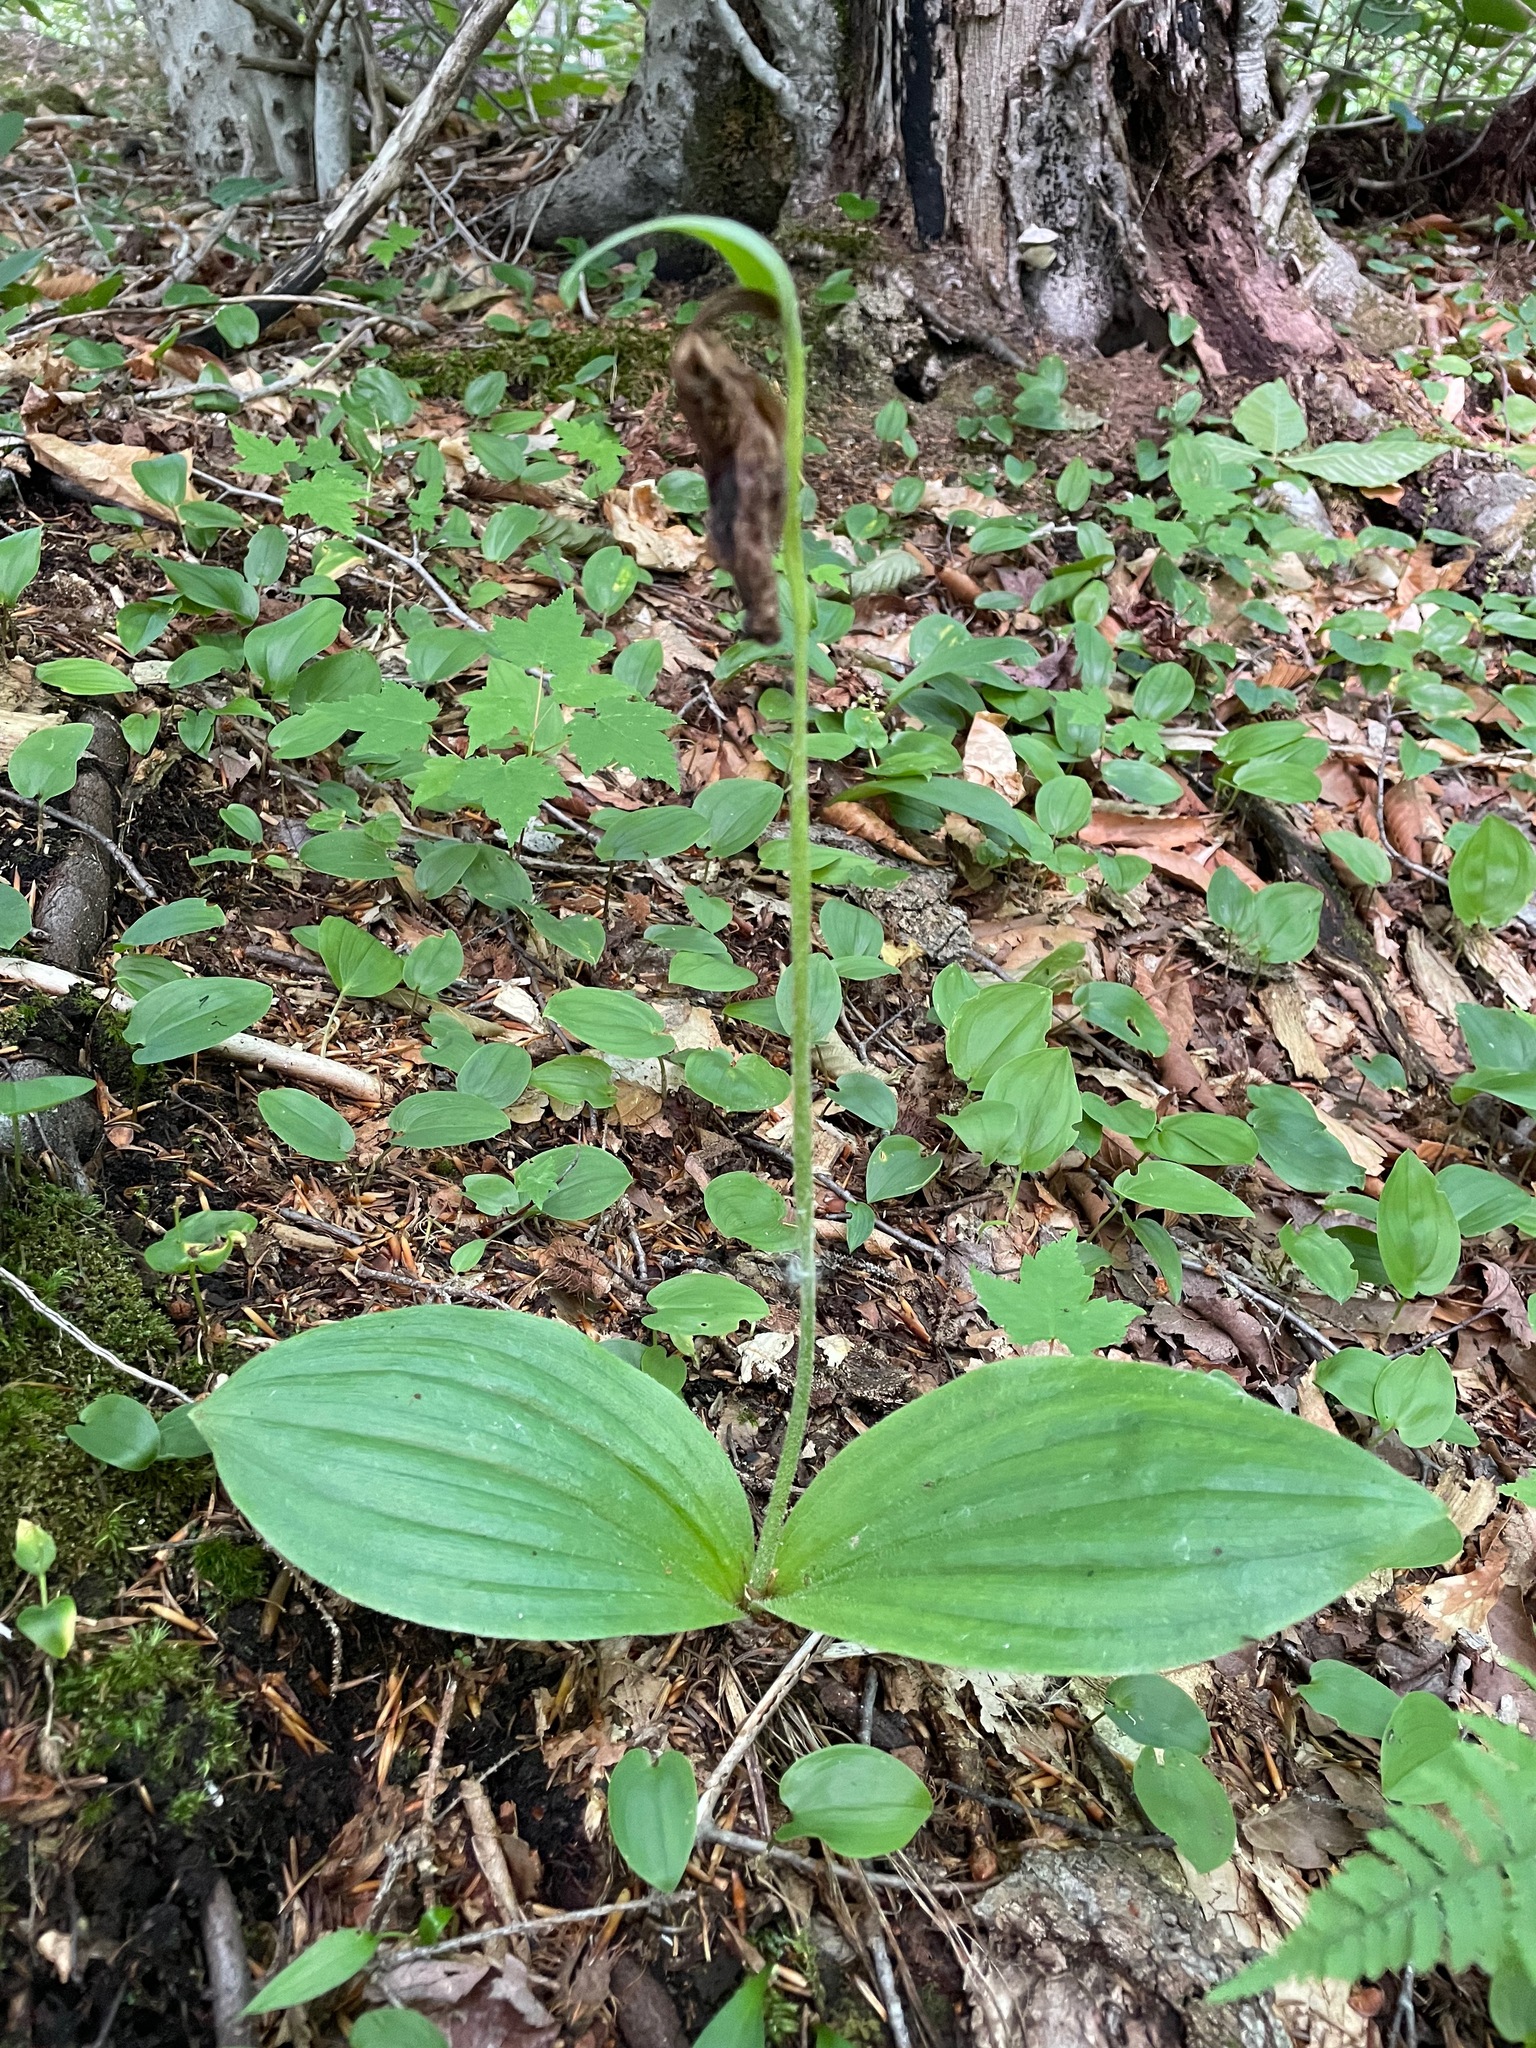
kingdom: Plantae
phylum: Tracheophyta
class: Liliopsida
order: Asparagales
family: Orchidaceae
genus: Cypripedium
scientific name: Cypripedium acaule
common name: Pink lady's-slipper
